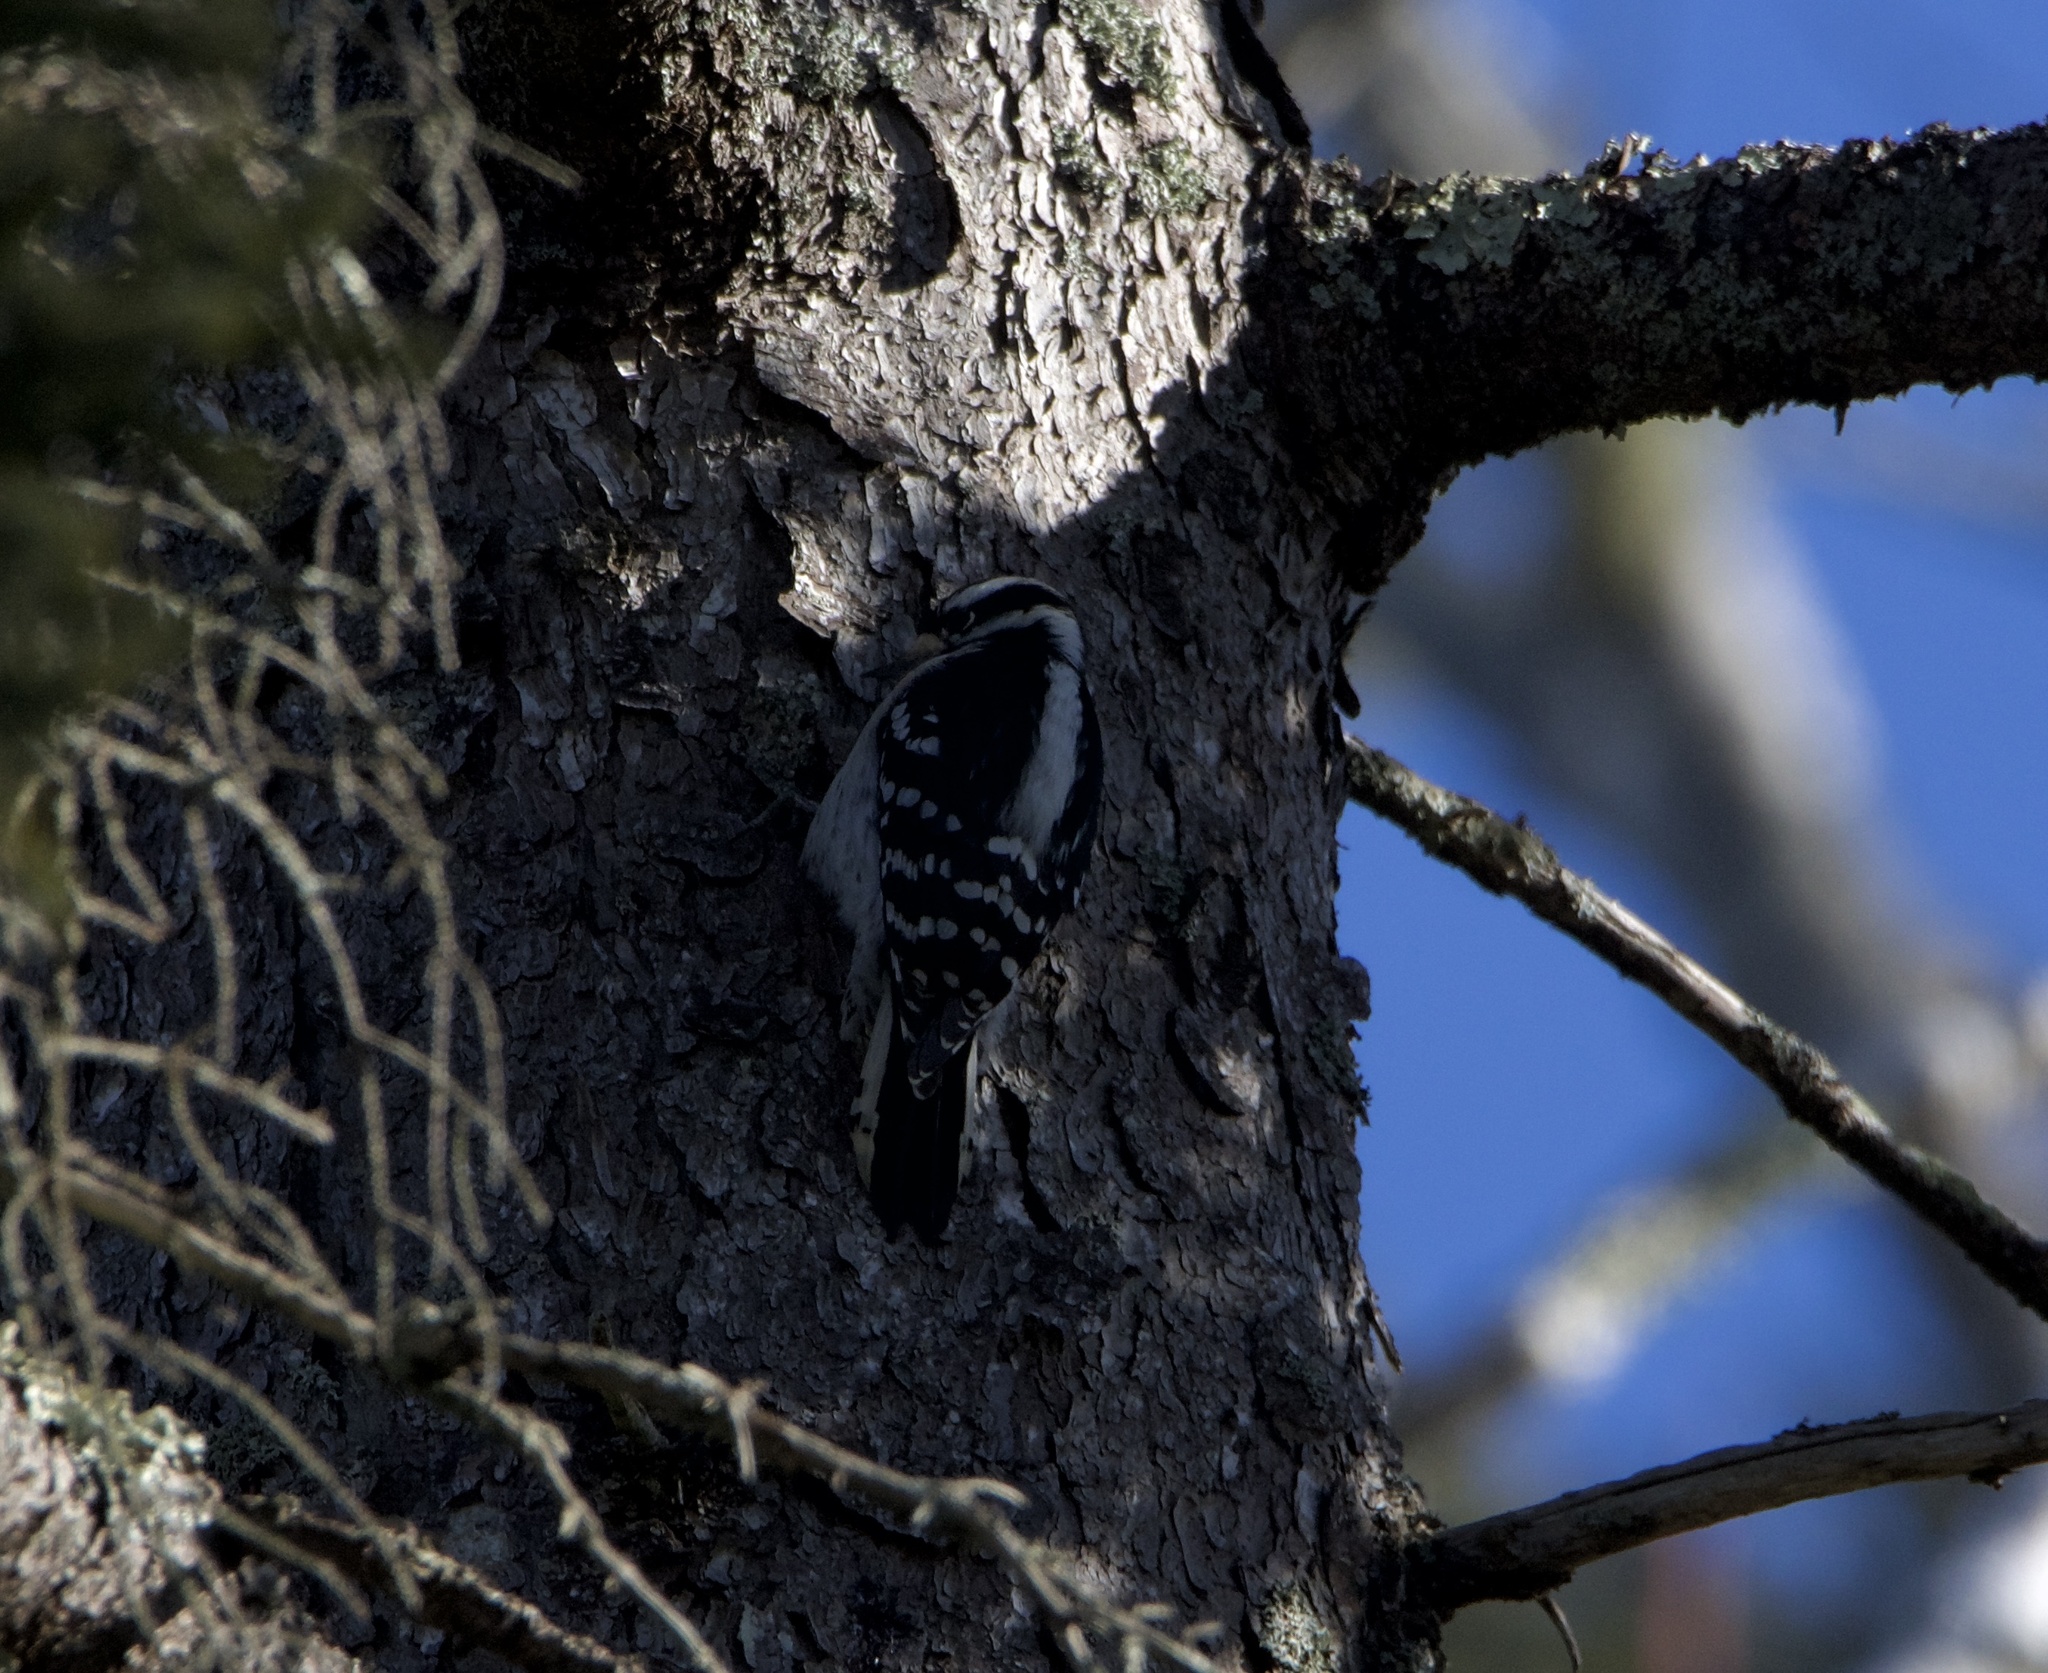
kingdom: Animalia
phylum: Chordata
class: Aves
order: Piciformes
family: Picidae
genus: Dryobates
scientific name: Dryobates pubescens
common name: Downy woodpecker
